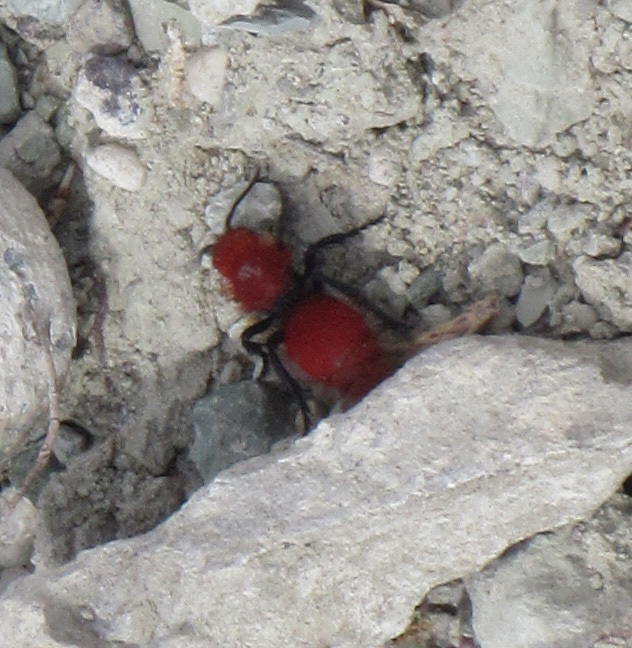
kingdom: Animalia
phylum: Arthropoda
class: Insecta
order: Hymenoptera
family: Mutillidae
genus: Dasymutilla
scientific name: Dasymutilla vestita
